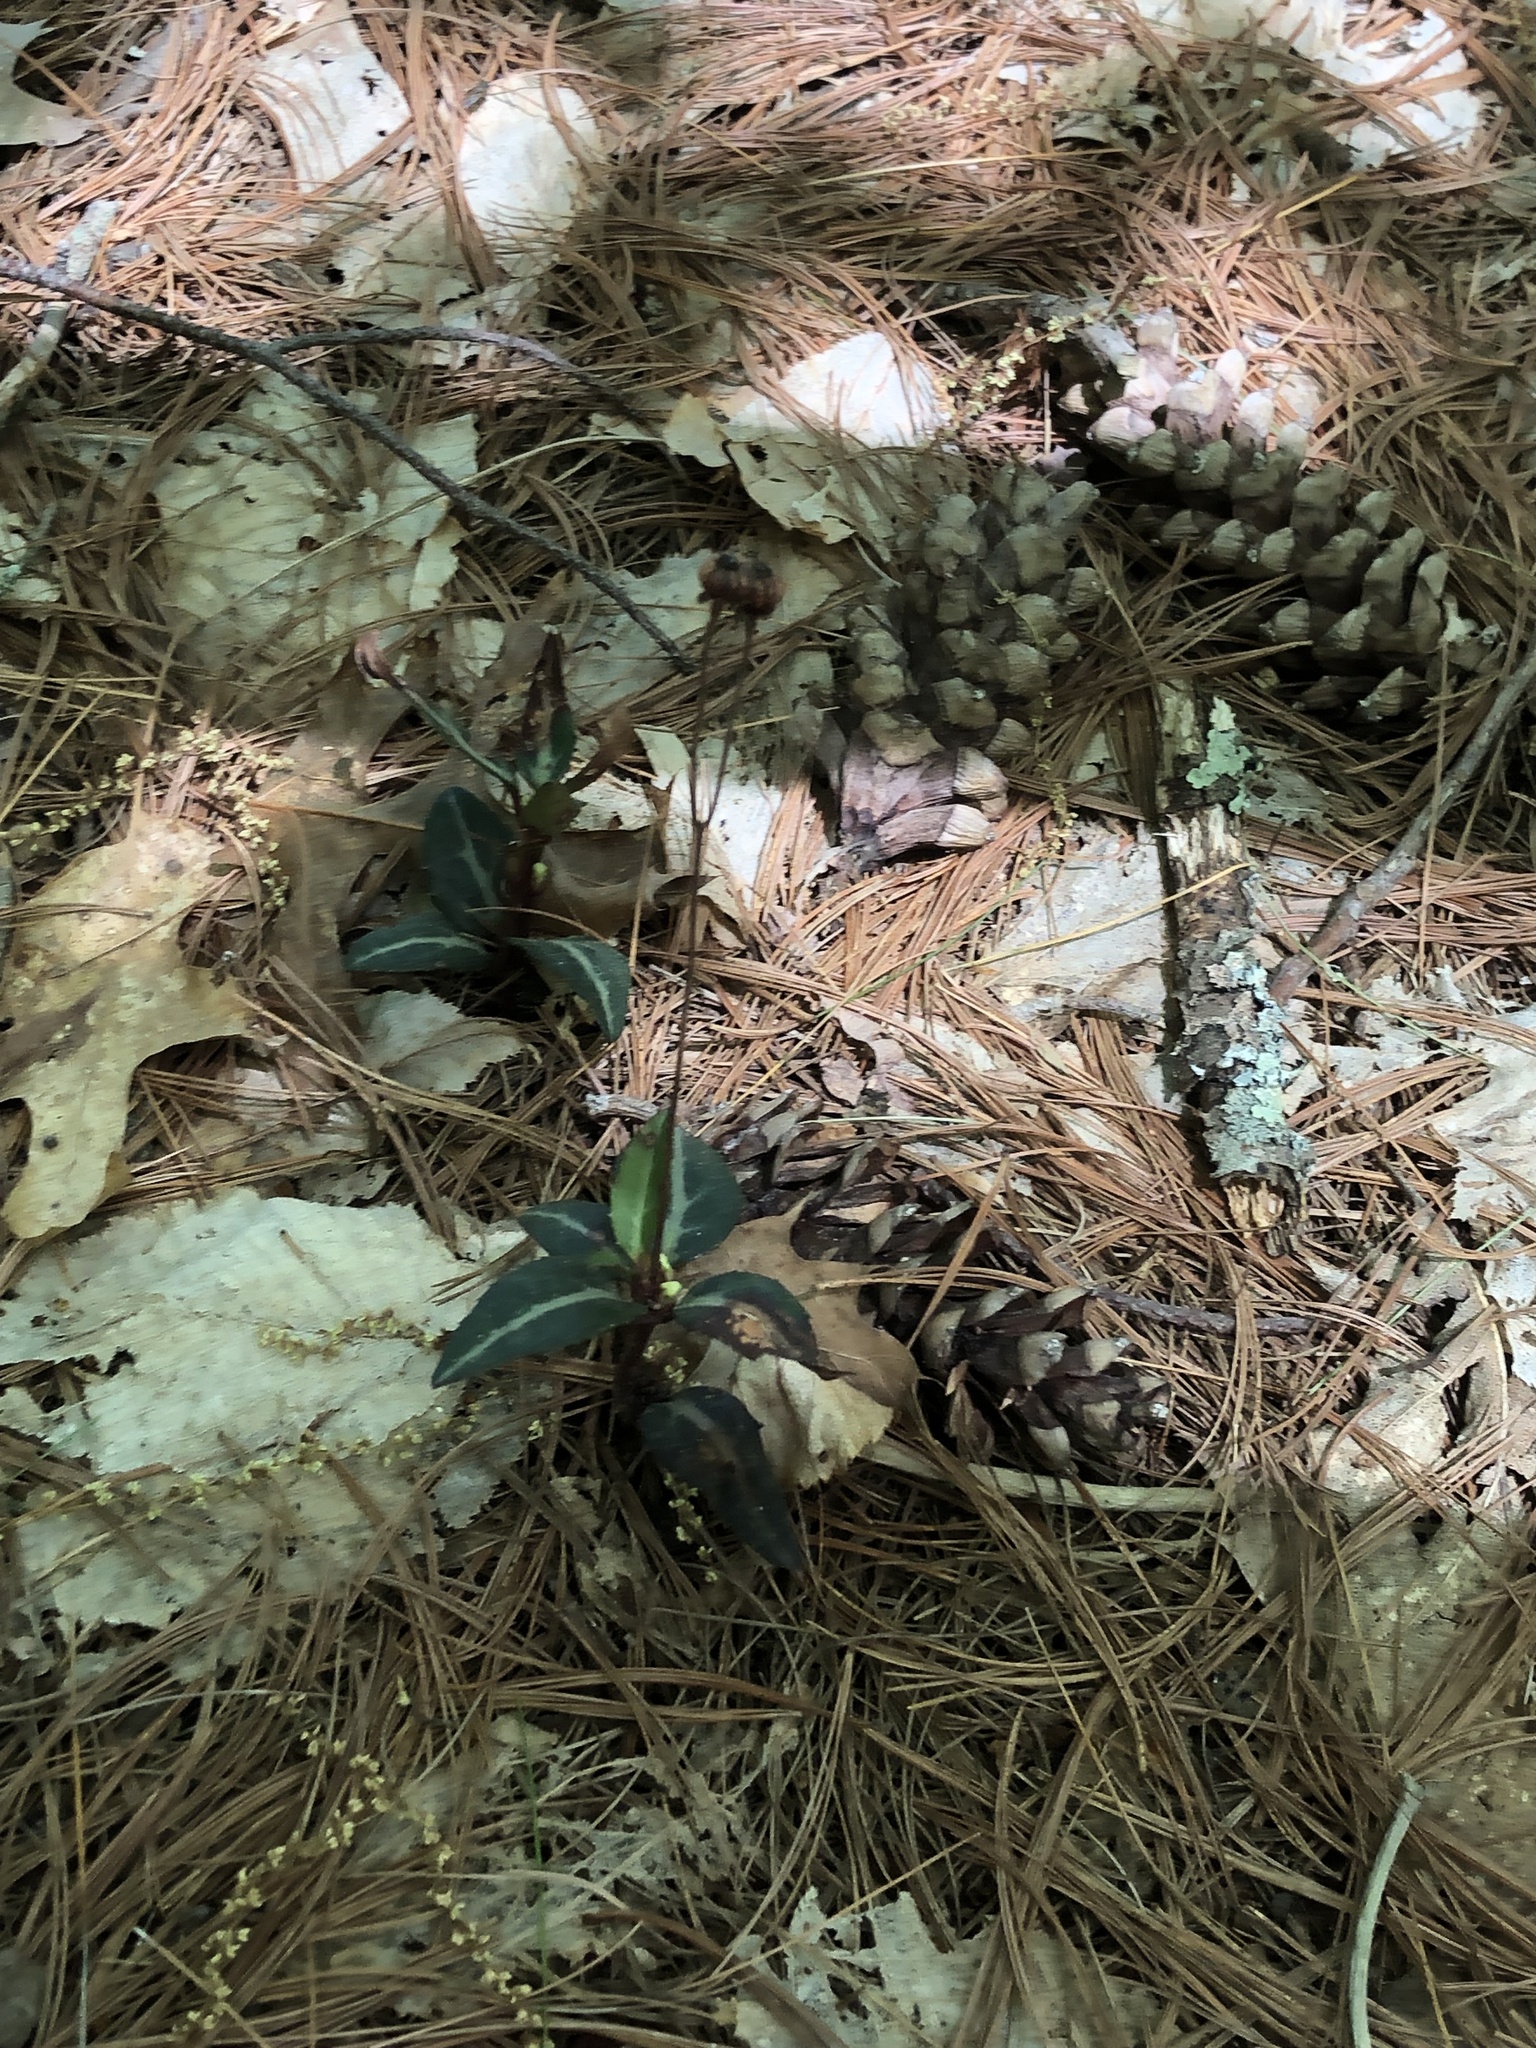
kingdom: Plantae
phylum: Tracheophyta
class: Magnoliopsida
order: Ericales
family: Ericaceae
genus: Chimaphila
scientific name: Chimaphila maculata
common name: Spotted pipsissewa
